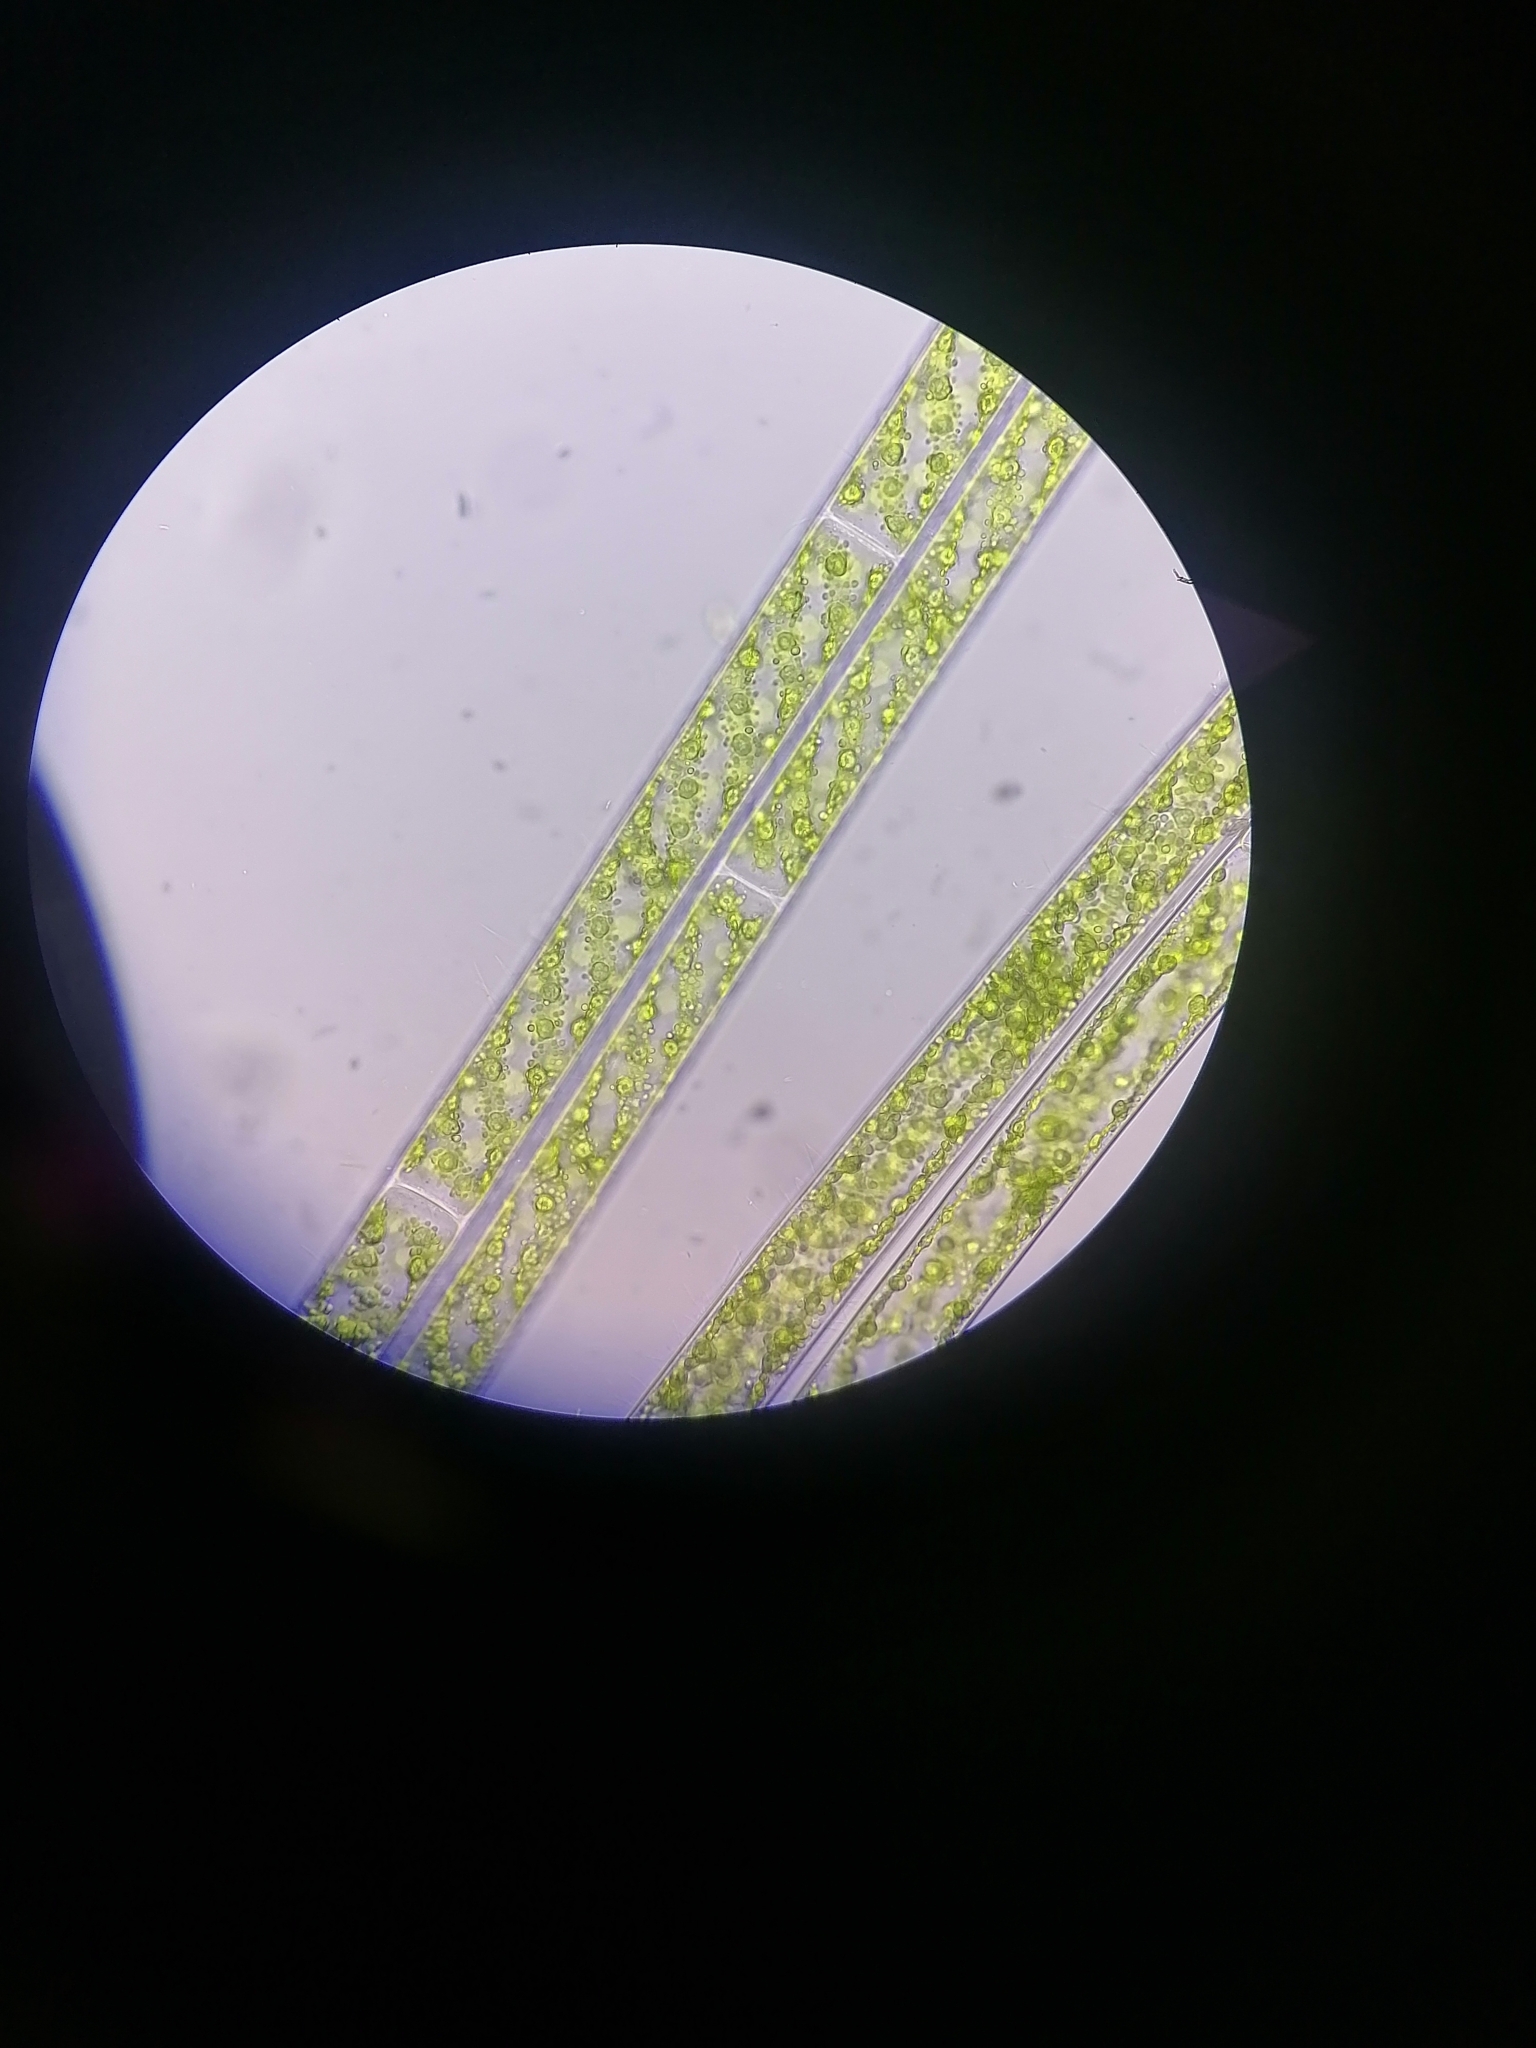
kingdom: Plantae
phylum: Charophyta
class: Zygnematophyceae
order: Zygnematales
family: Zygnemataceae
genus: Spirogyra
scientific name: Spirogyra
